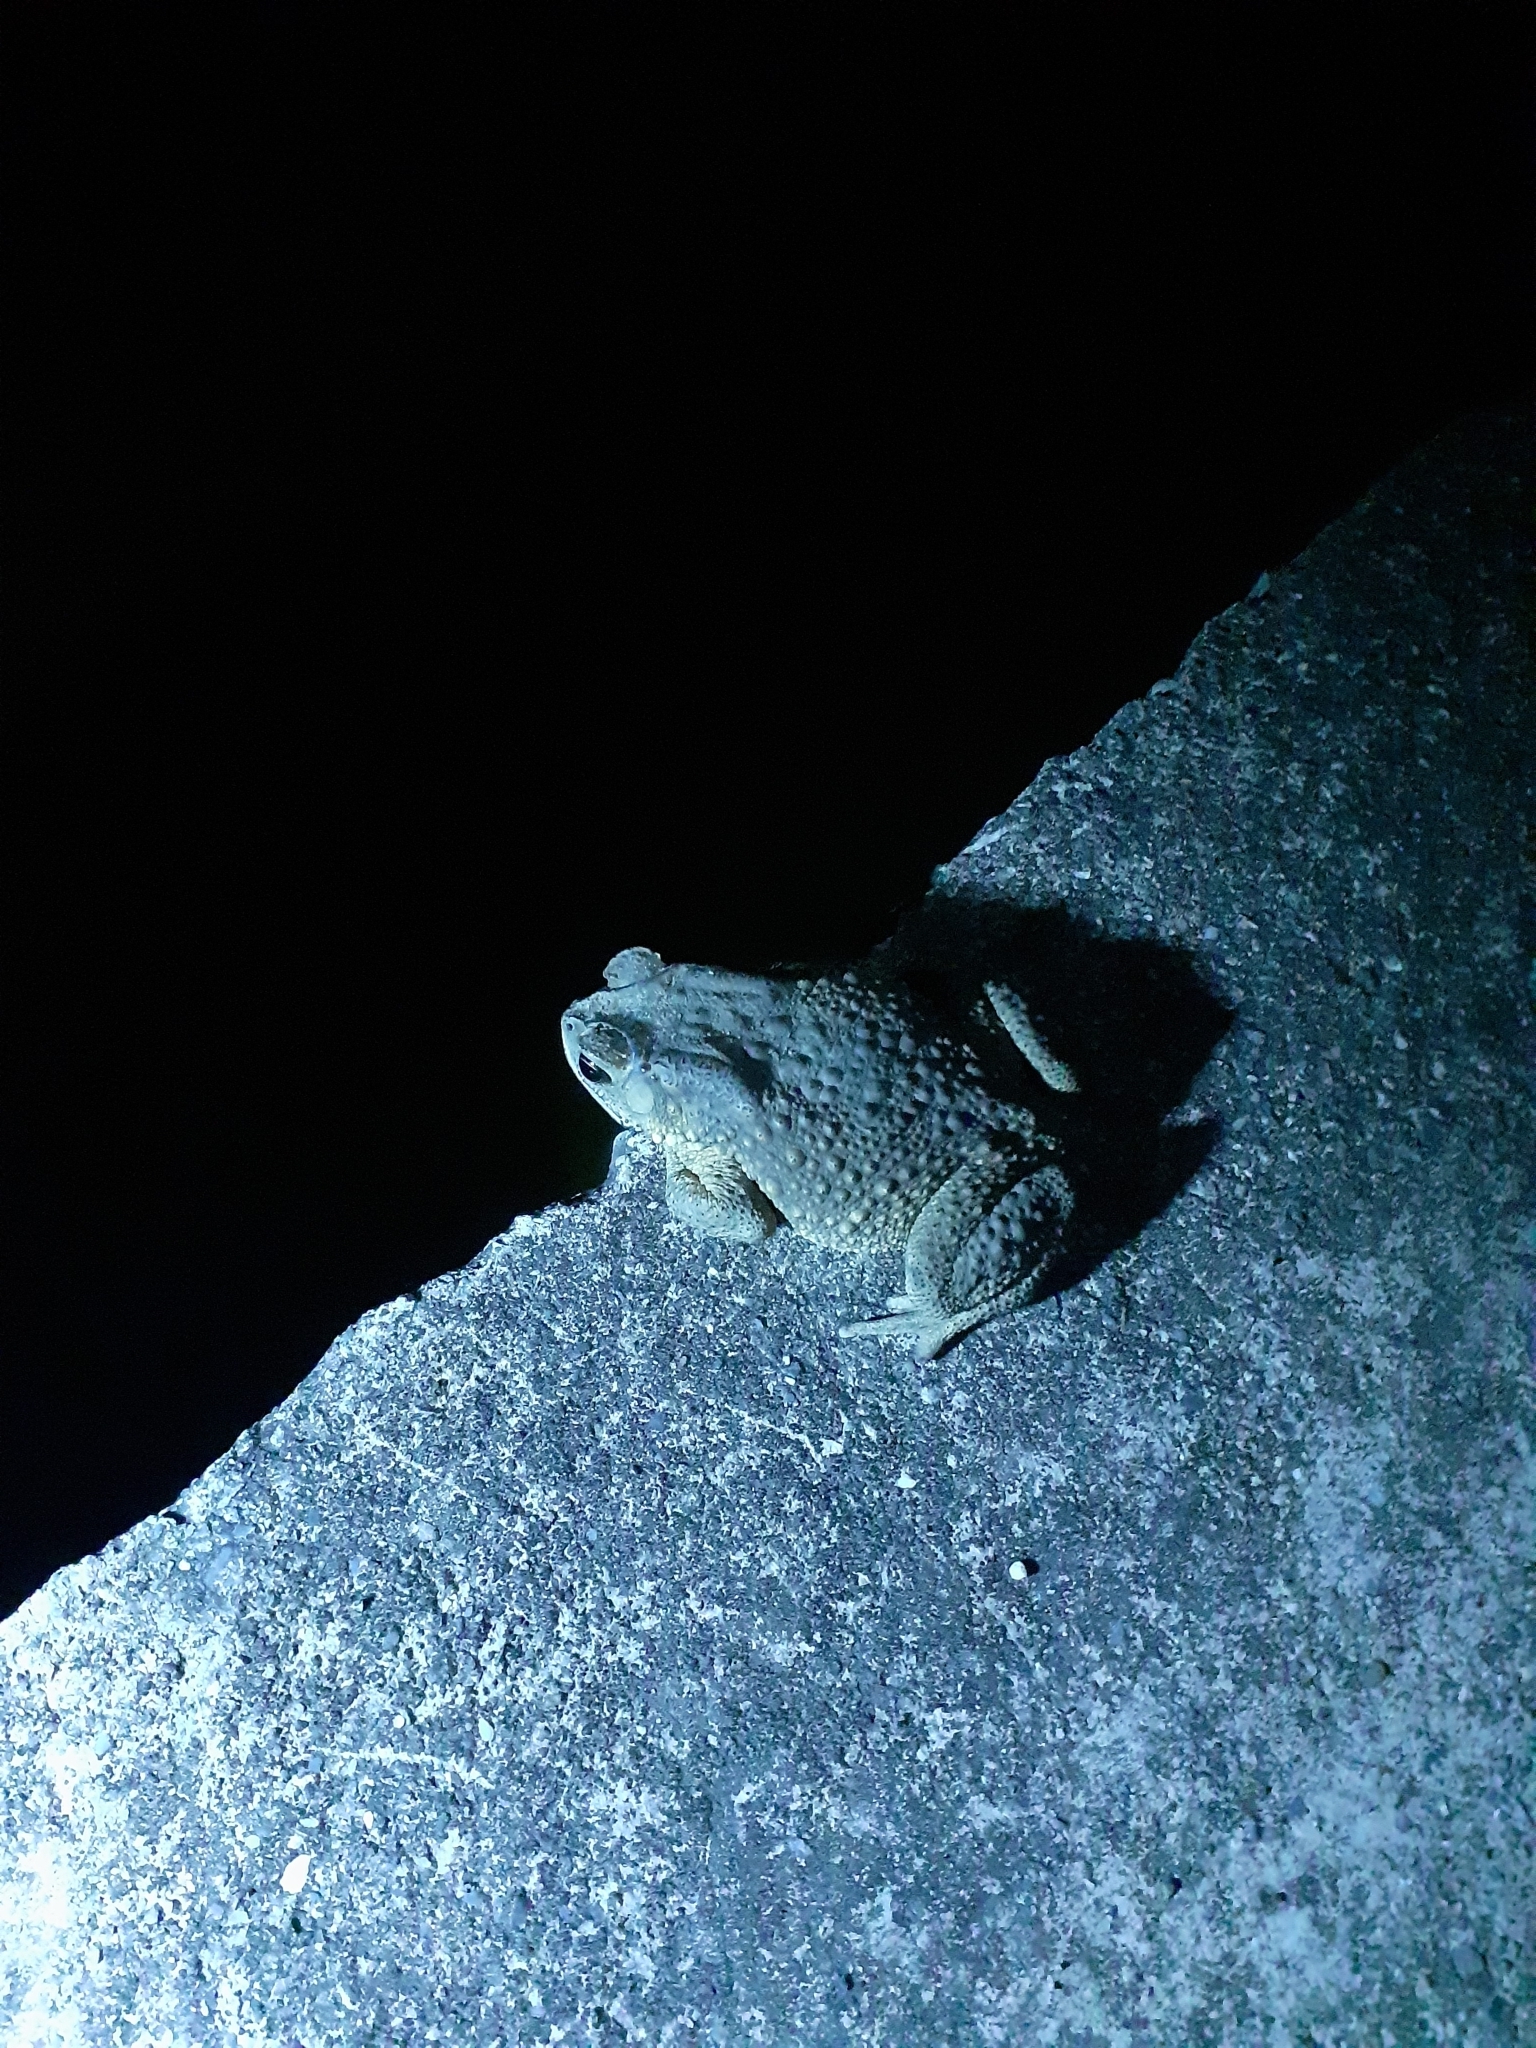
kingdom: Animalia
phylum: Chordata
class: Amphibia
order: Anura
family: Bufonidae
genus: Duttaphrynus
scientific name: Duttaphrynus melanostictus
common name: Common sunda toad
